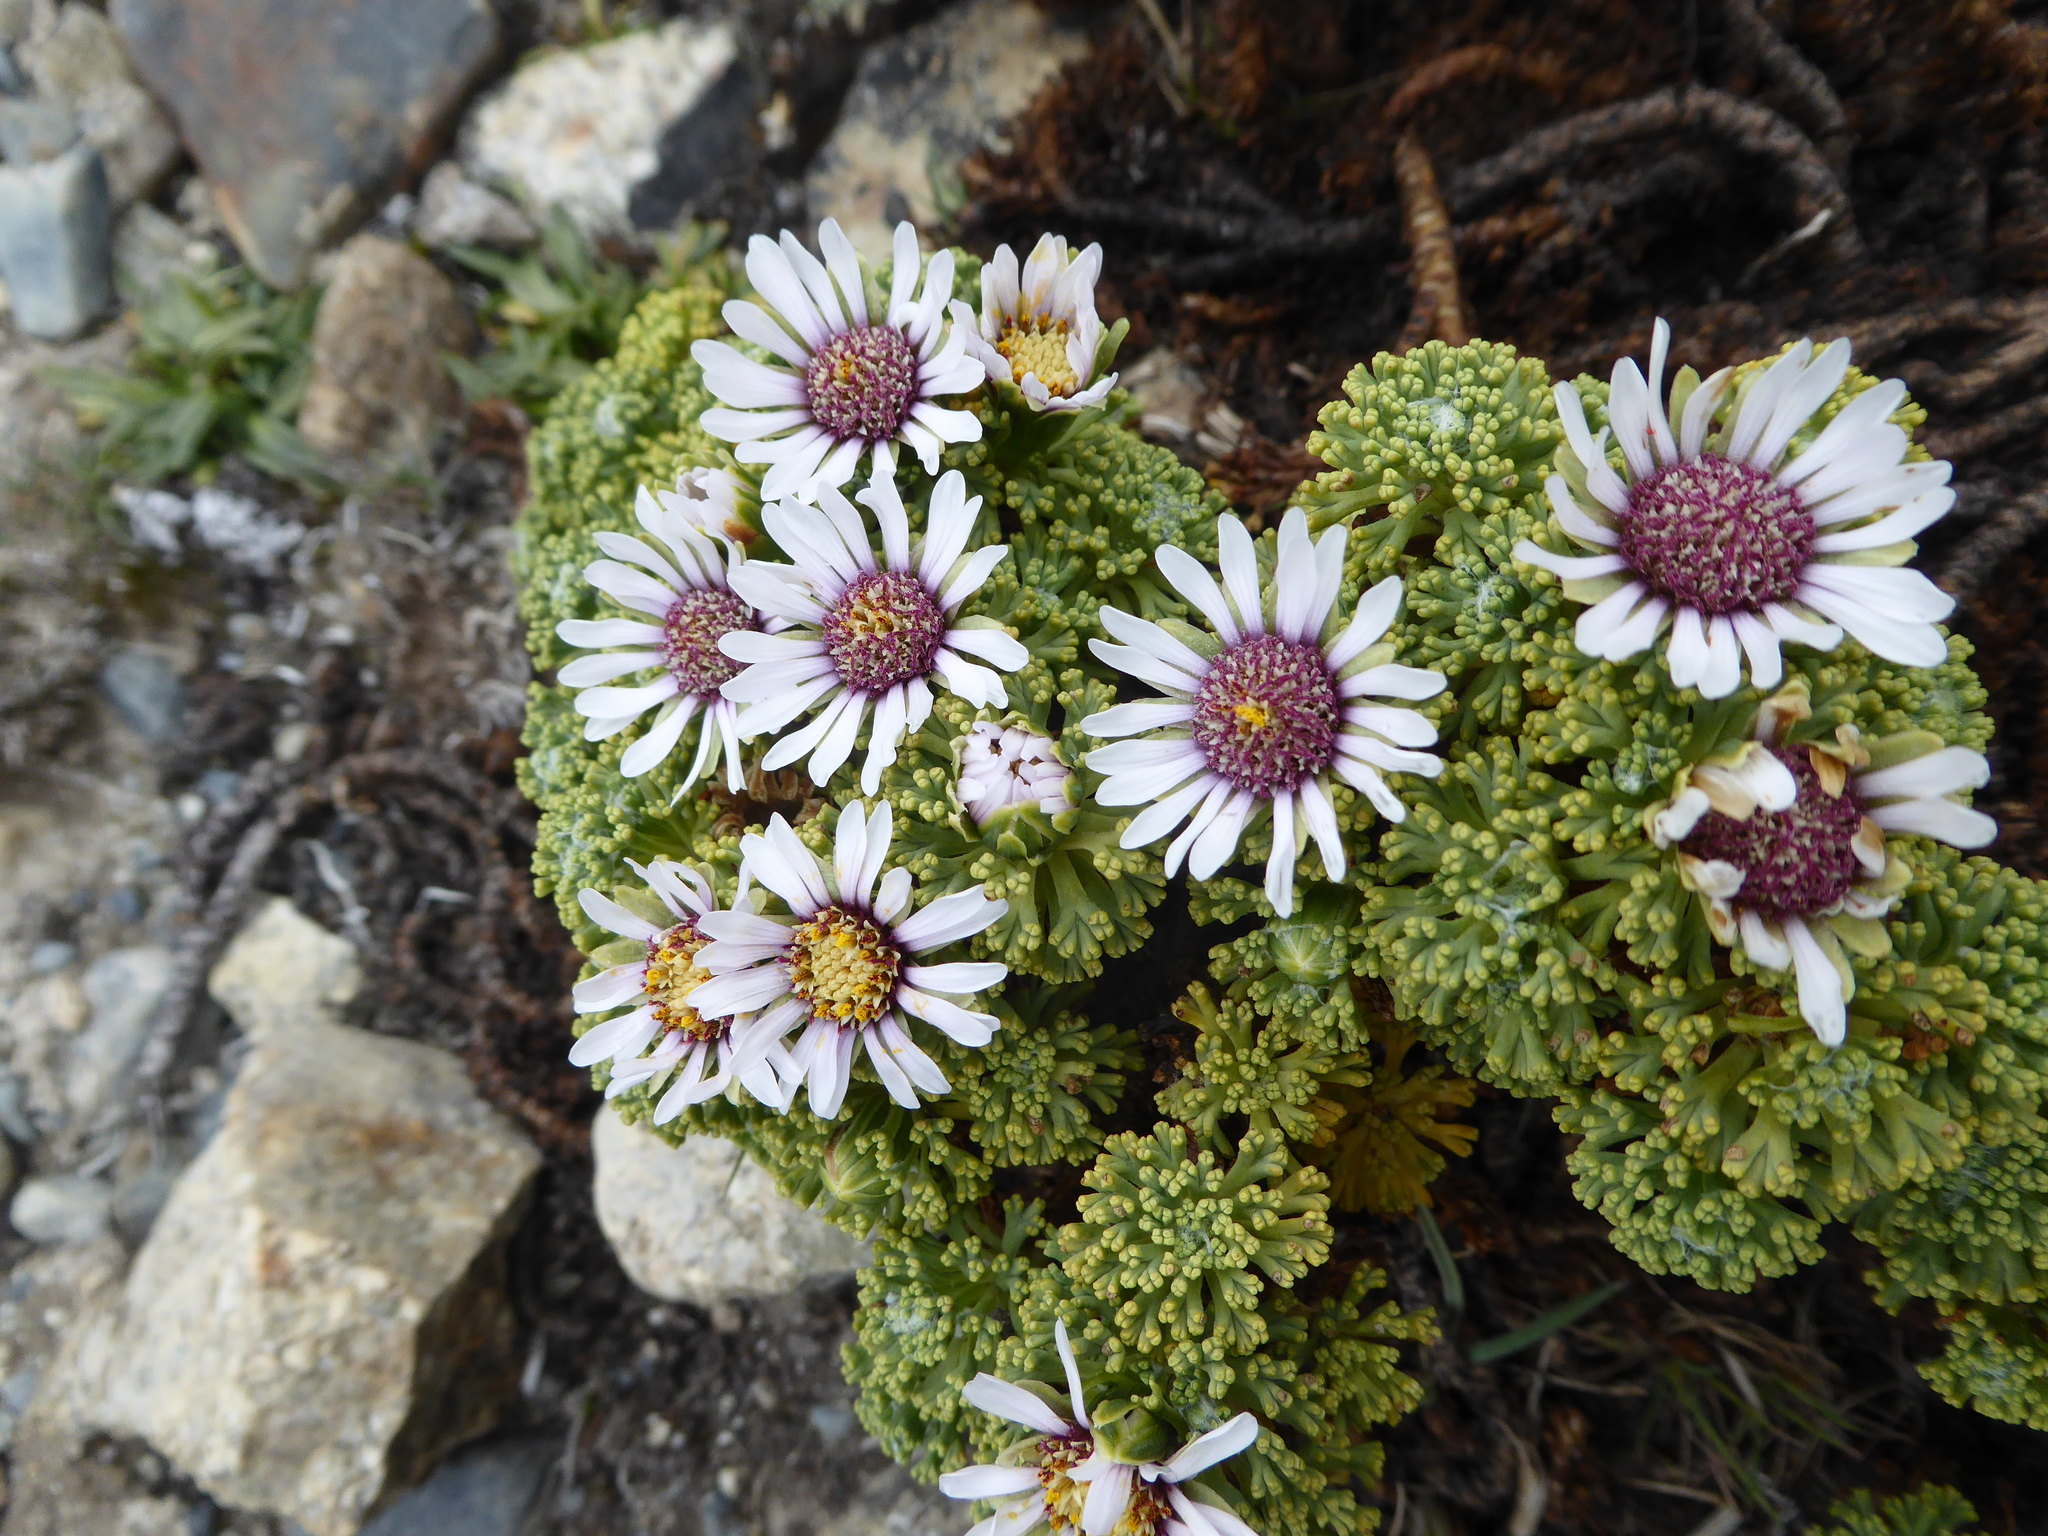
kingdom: Plantae
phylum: Tracheophyta
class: Magnoliopsida
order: Asterales
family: Asteraceae
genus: Werneria
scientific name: Werneria dactylophylla
